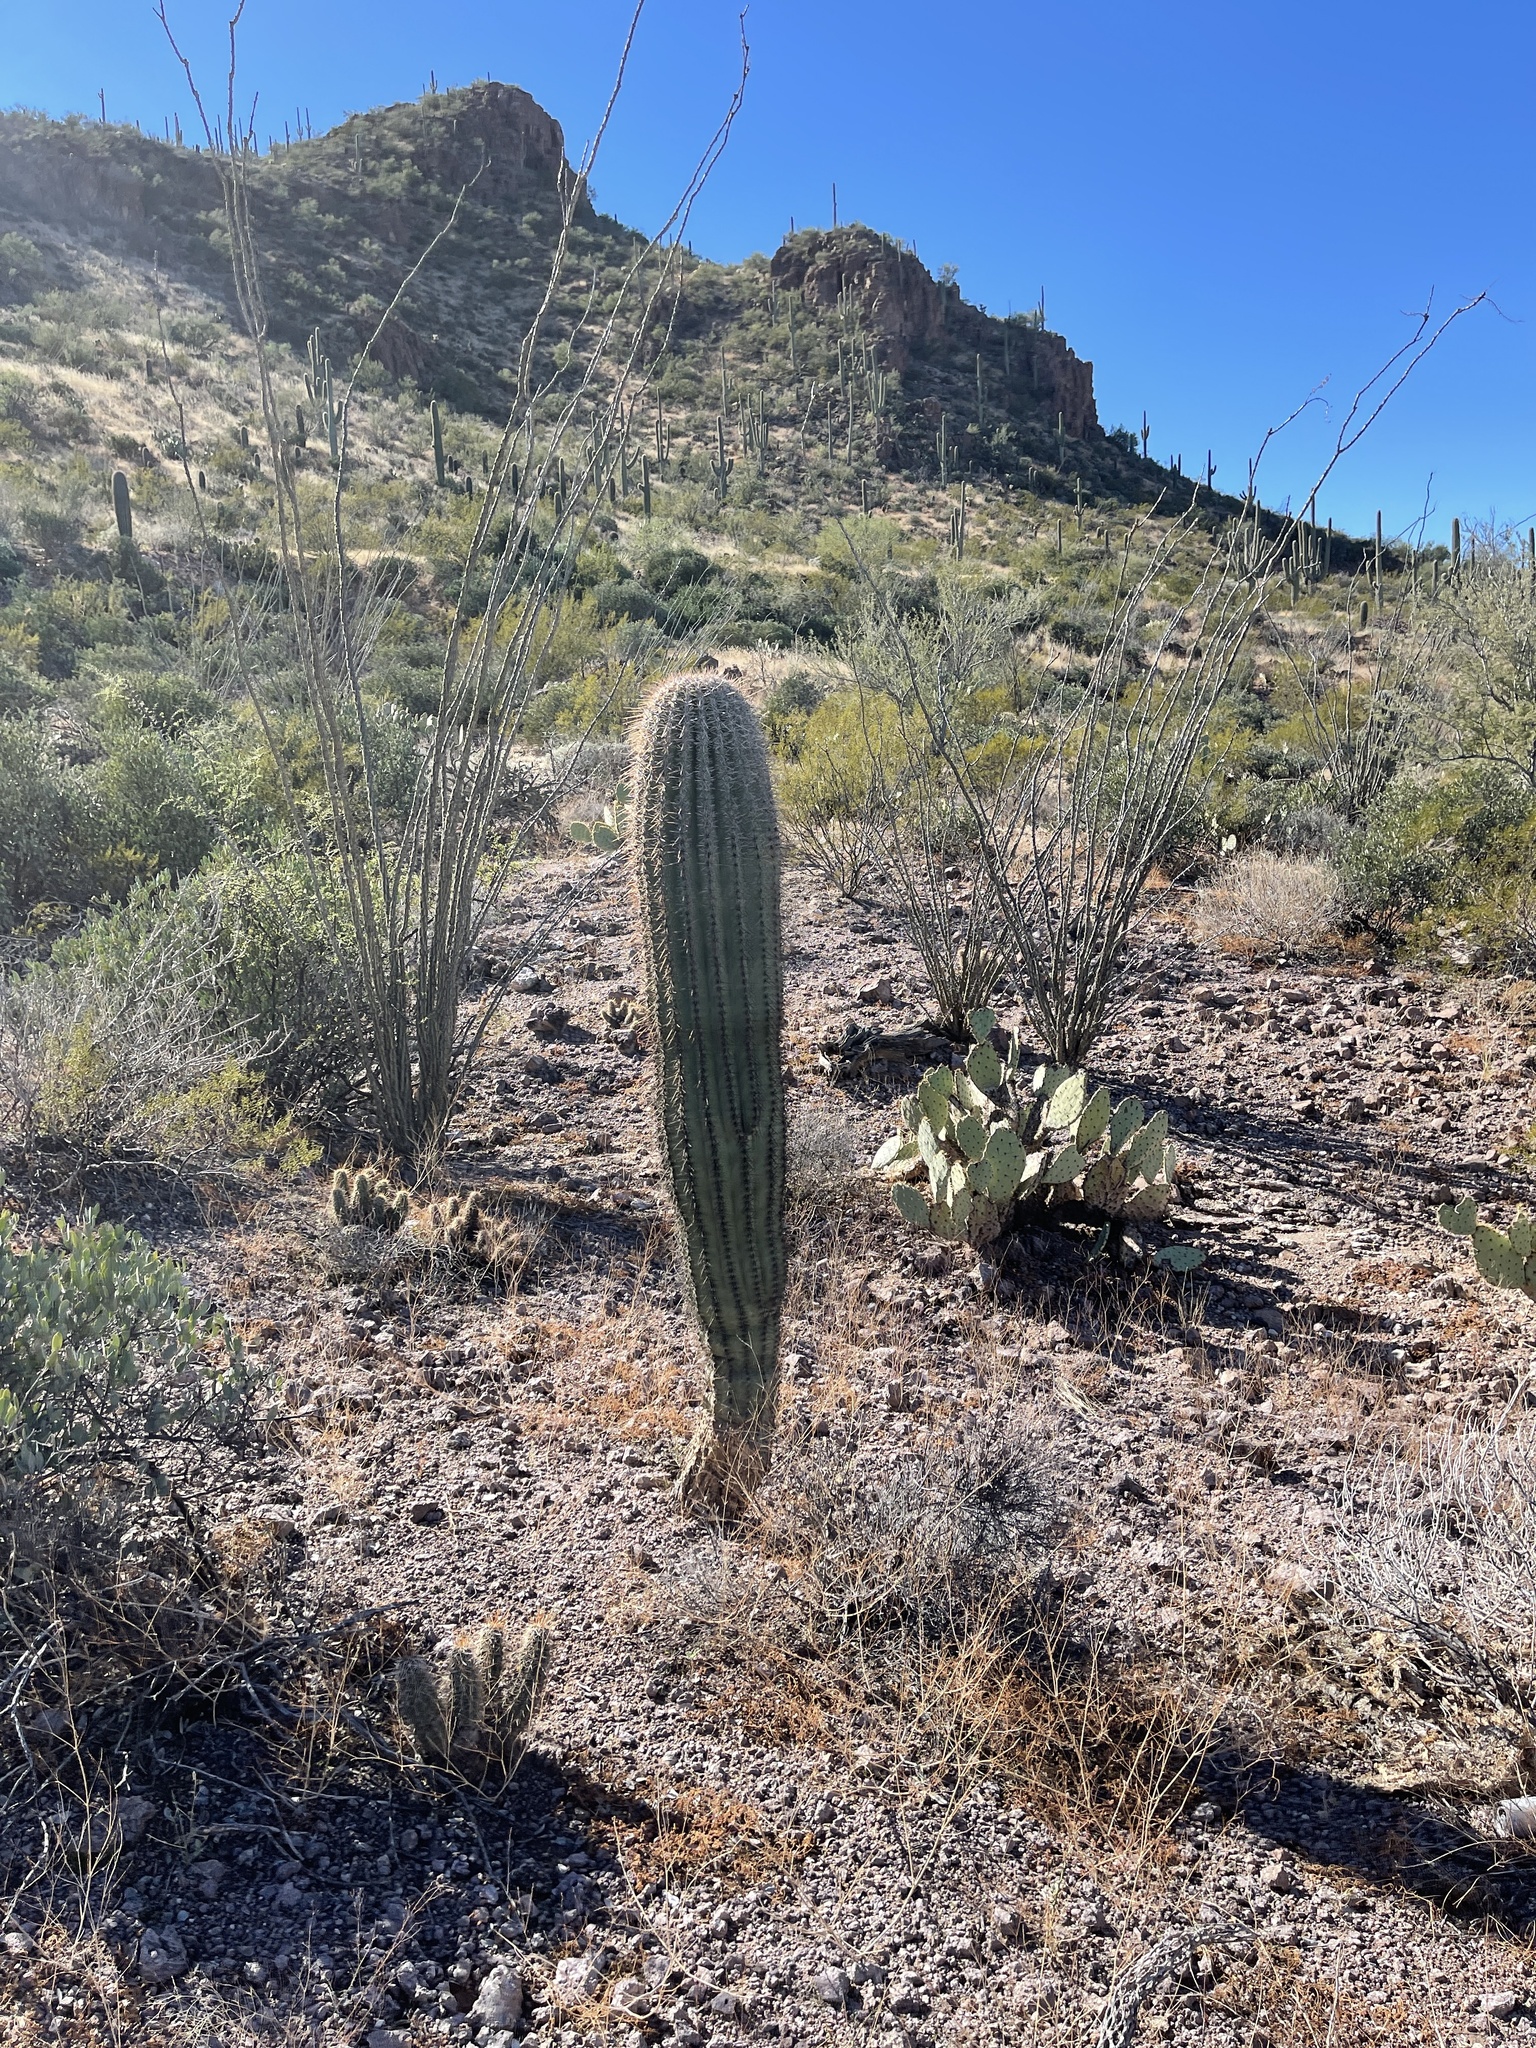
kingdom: Plantae
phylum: Tracheophyta
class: Magnoliopsida
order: Caryophyllales
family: Cactaceae
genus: Carnegiea
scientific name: Carnegiea gigantea
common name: Saguaro
